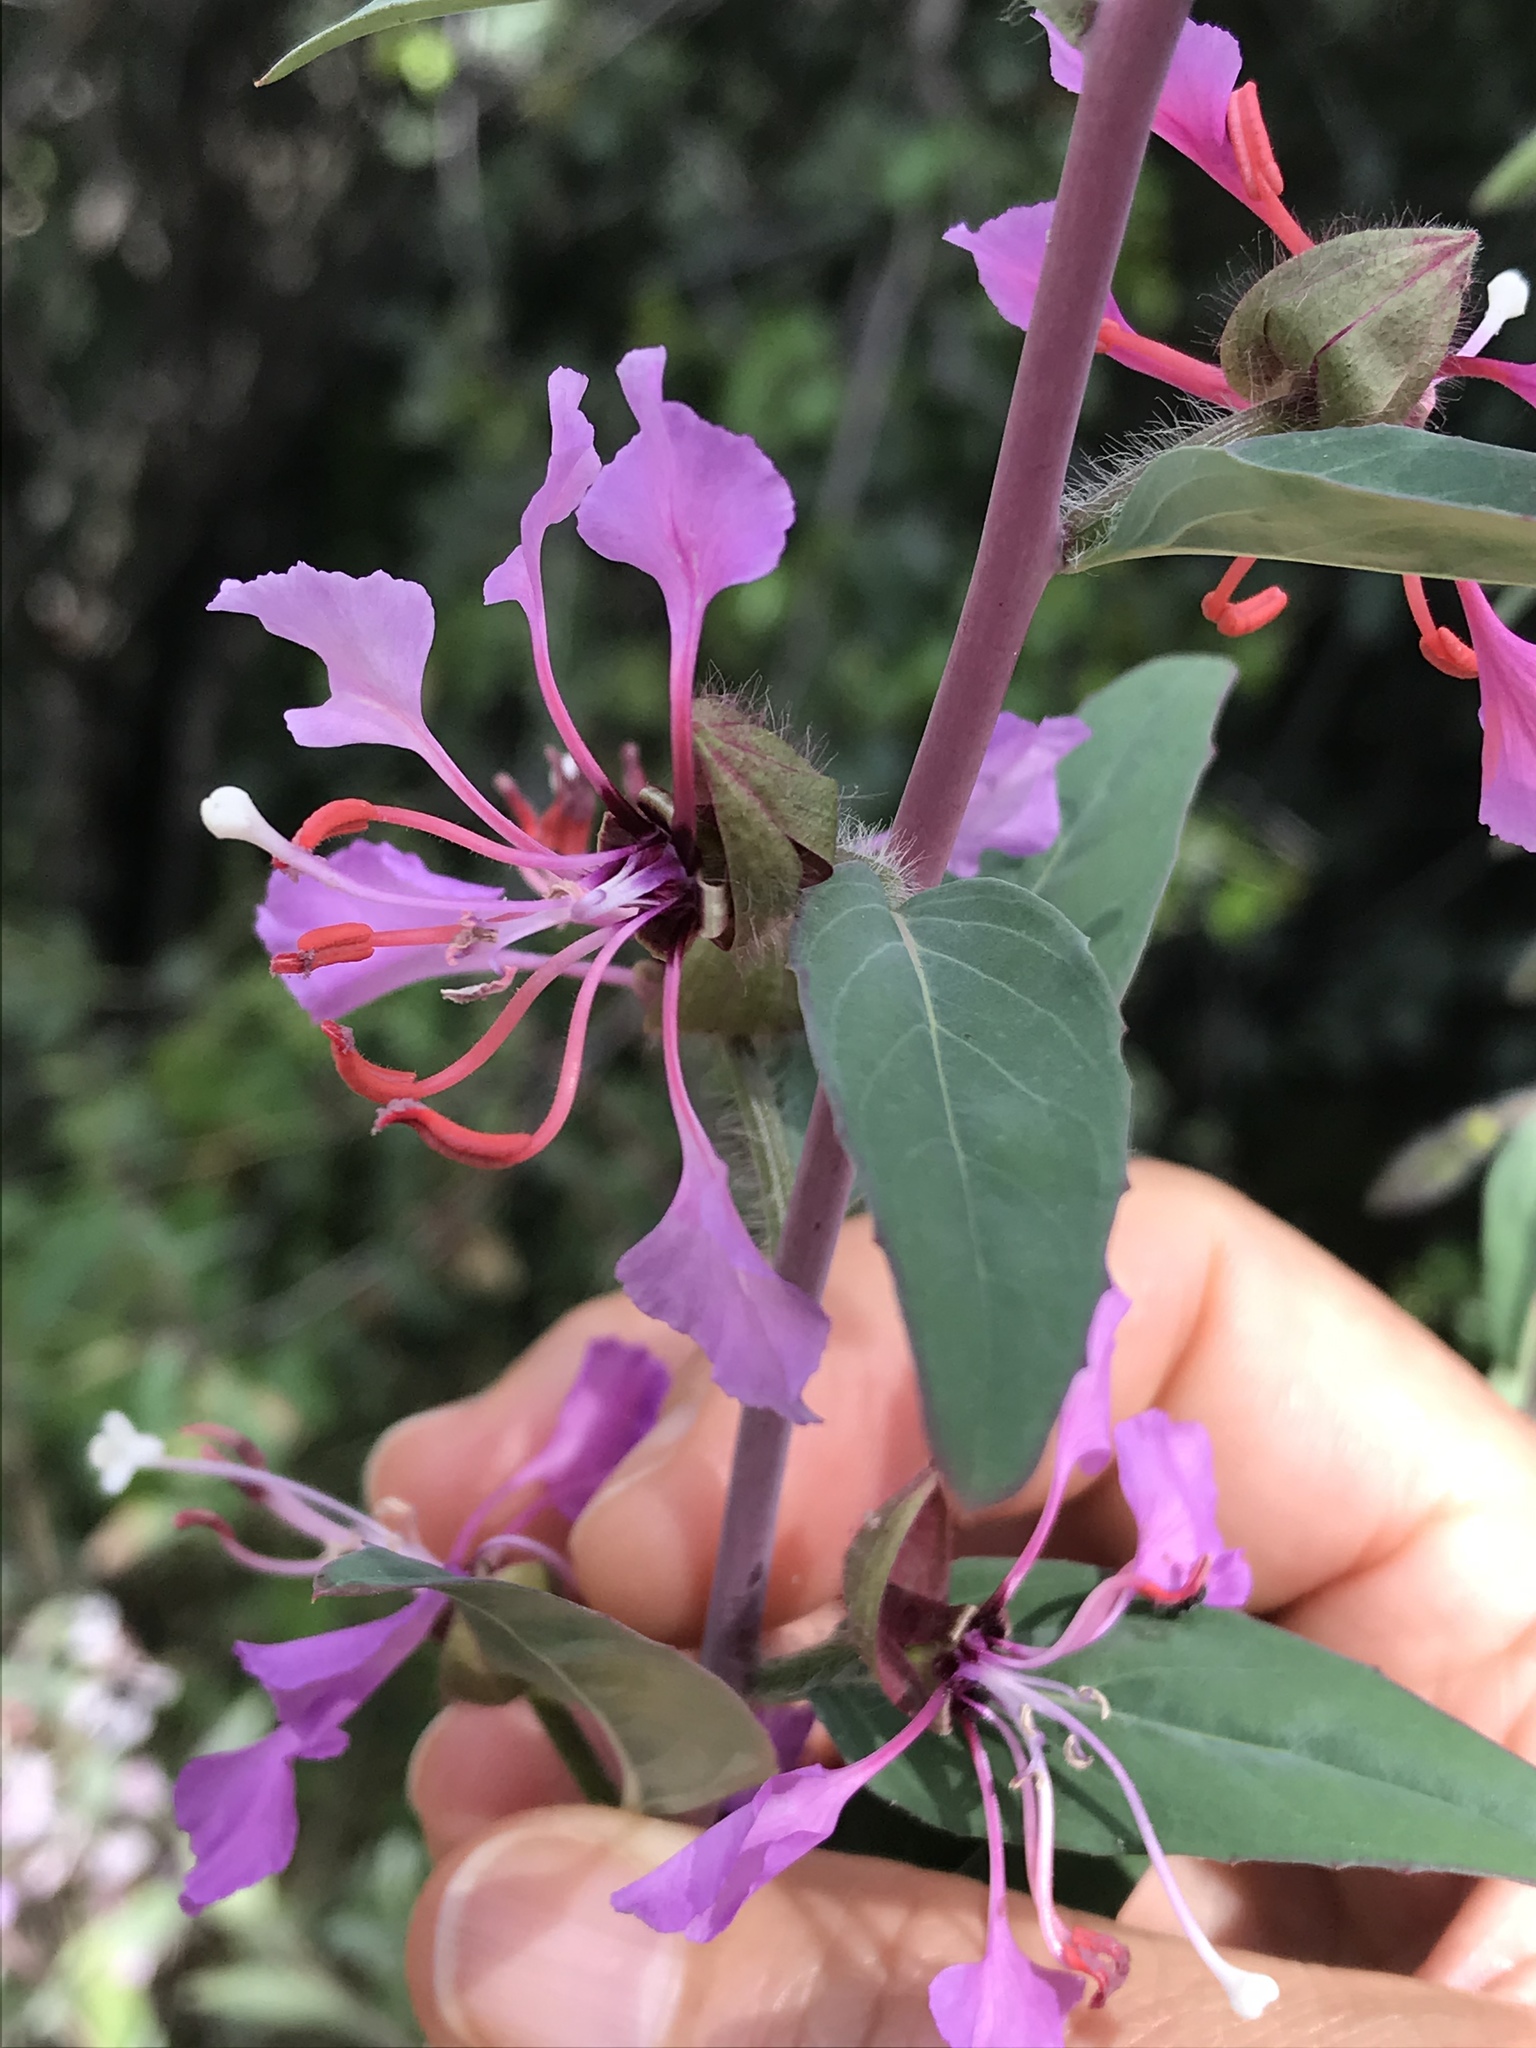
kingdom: Plantae
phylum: Tracheophyta
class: Magnoliopsida
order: Myrtales
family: Onagraceae
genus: Clarkia
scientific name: Clarkia unguiculata
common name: Clarkia
